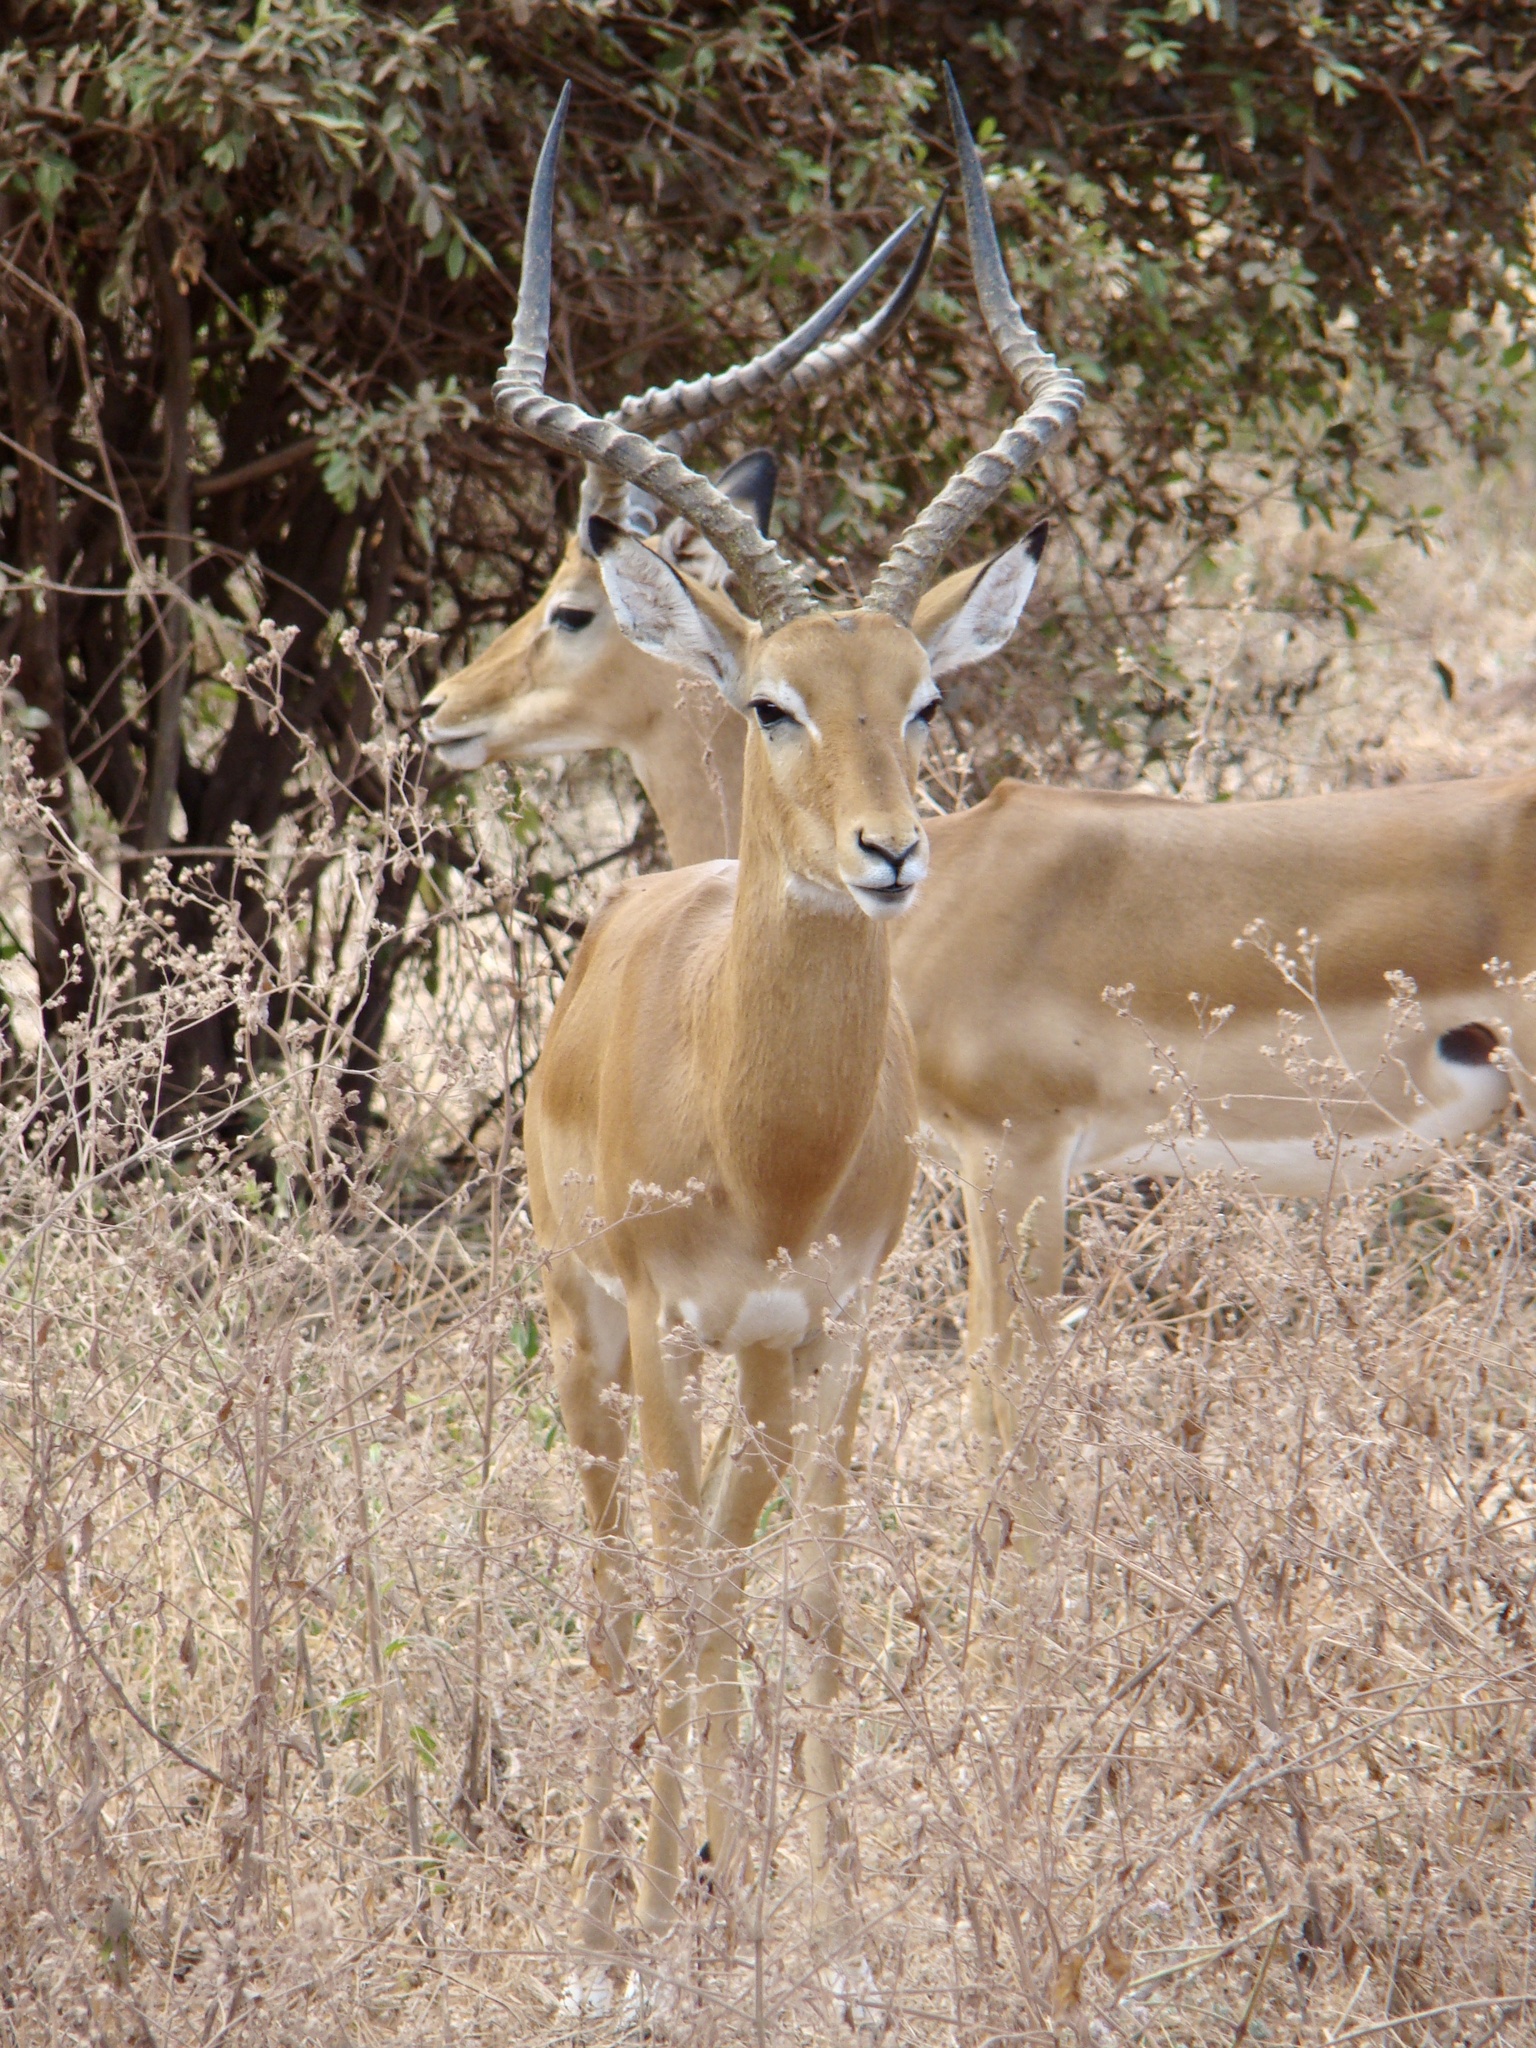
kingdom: Animalia
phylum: Chordata
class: Mammalia
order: Artiodactyla
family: Bovidae
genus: Aepyceros
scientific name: Aepyceros melampus
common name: Impala
